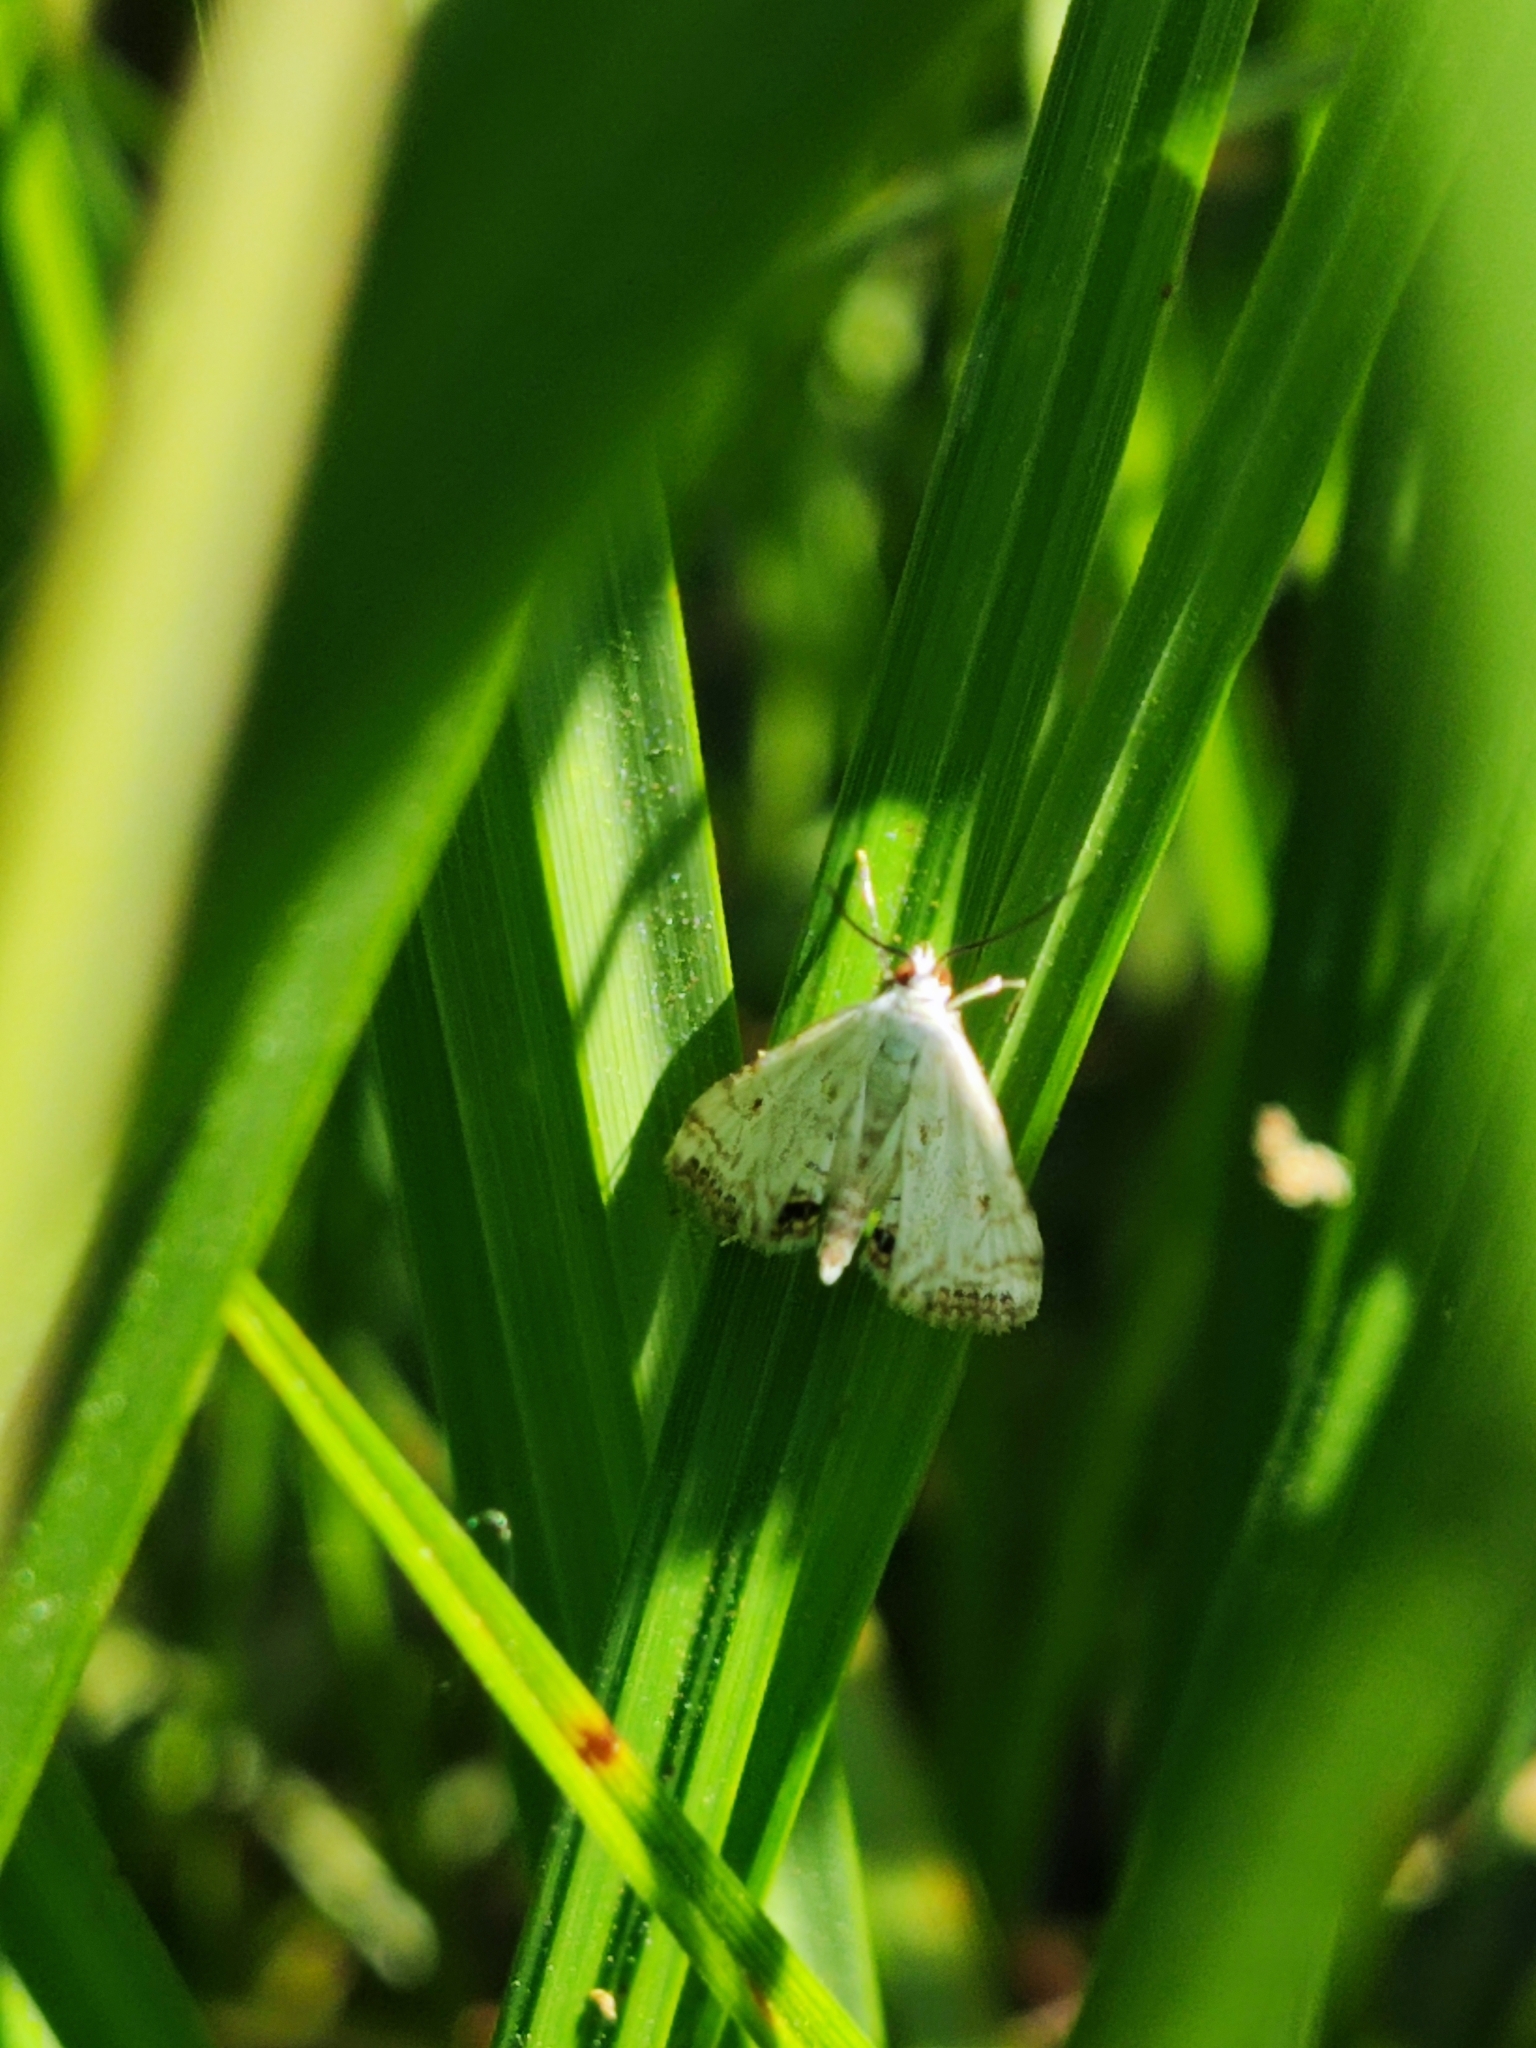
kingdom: Animalia
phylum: Arthropoda
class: Insecta
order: Lepidoptera
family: Crambidae
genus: Cataclysta
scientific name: Cataclysta lemnata
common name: Small china-mark
